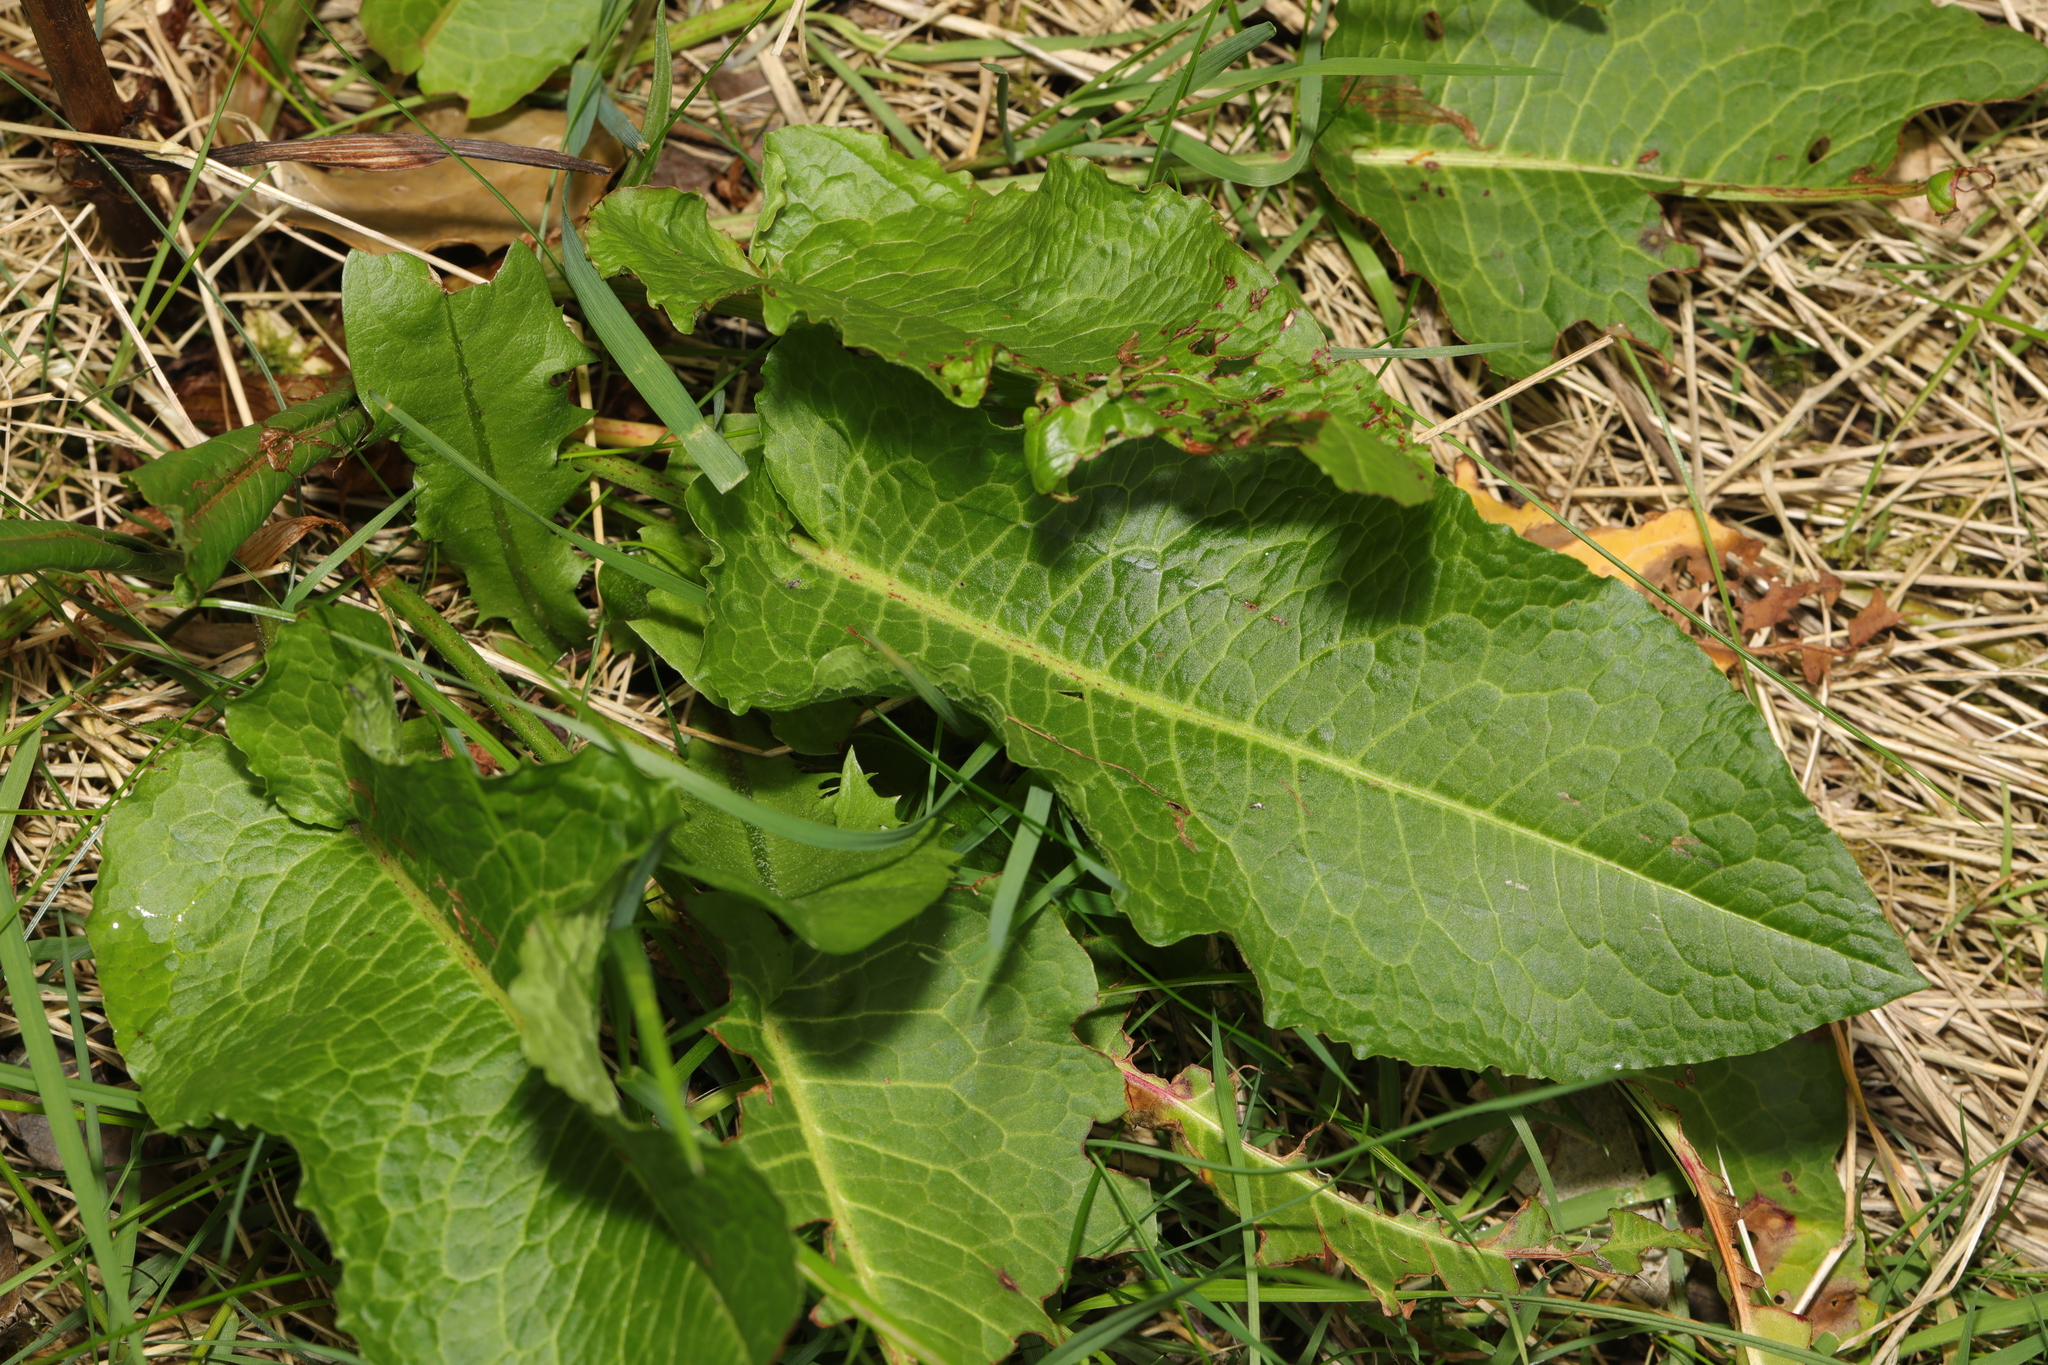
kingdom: Plantae
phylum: Tracheophyta
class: Magnoliopsida
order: Caryophyllales
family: Polygonaceae
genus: Rumex
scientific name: Rumex obtusifolius
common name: Bitter dock
